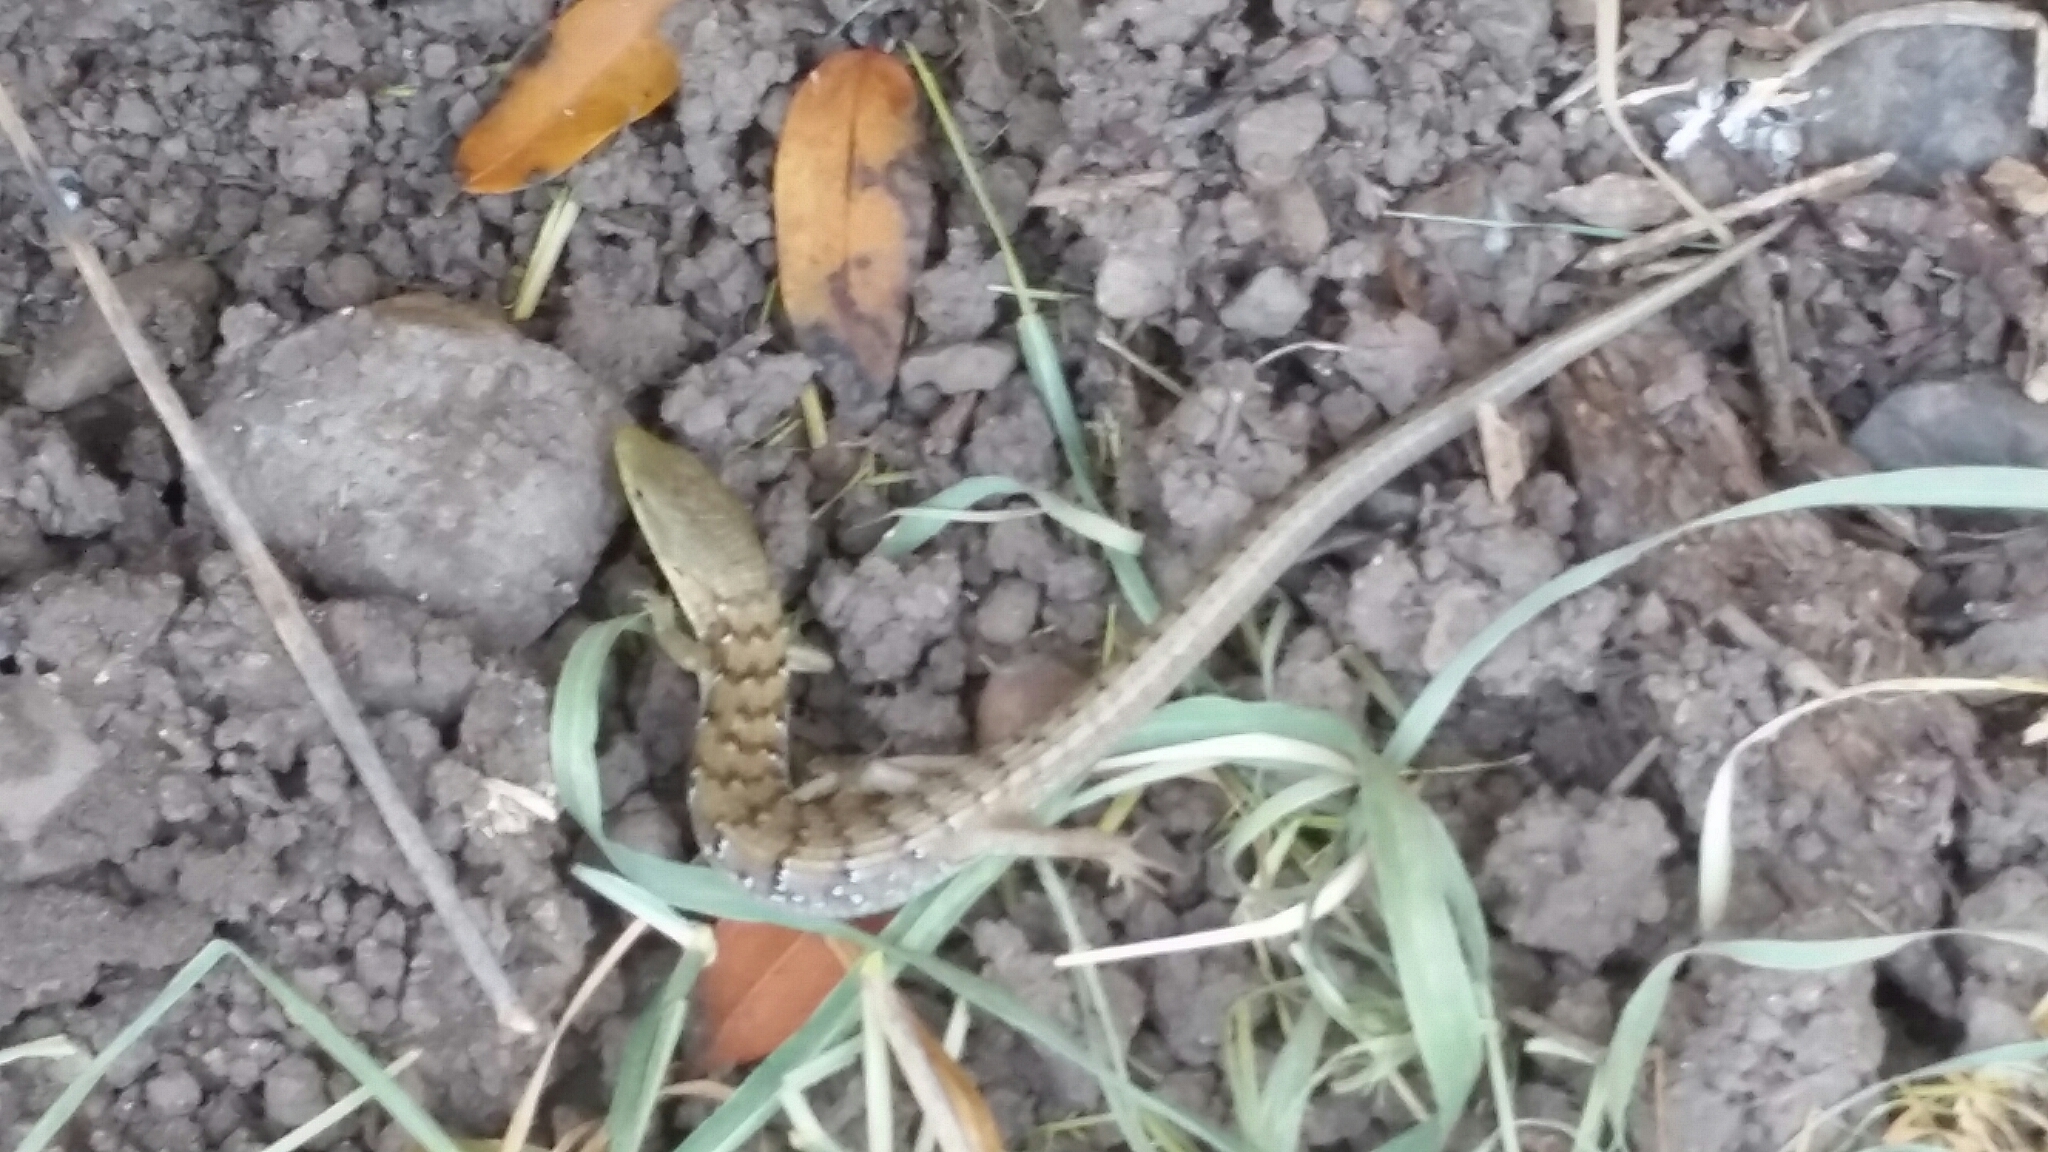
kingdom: Animalia
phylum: Chordata
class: Squamata
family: Anguidae
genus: Elgaria
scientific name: Elgaria multicarinata
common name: Southern alligator lizard
